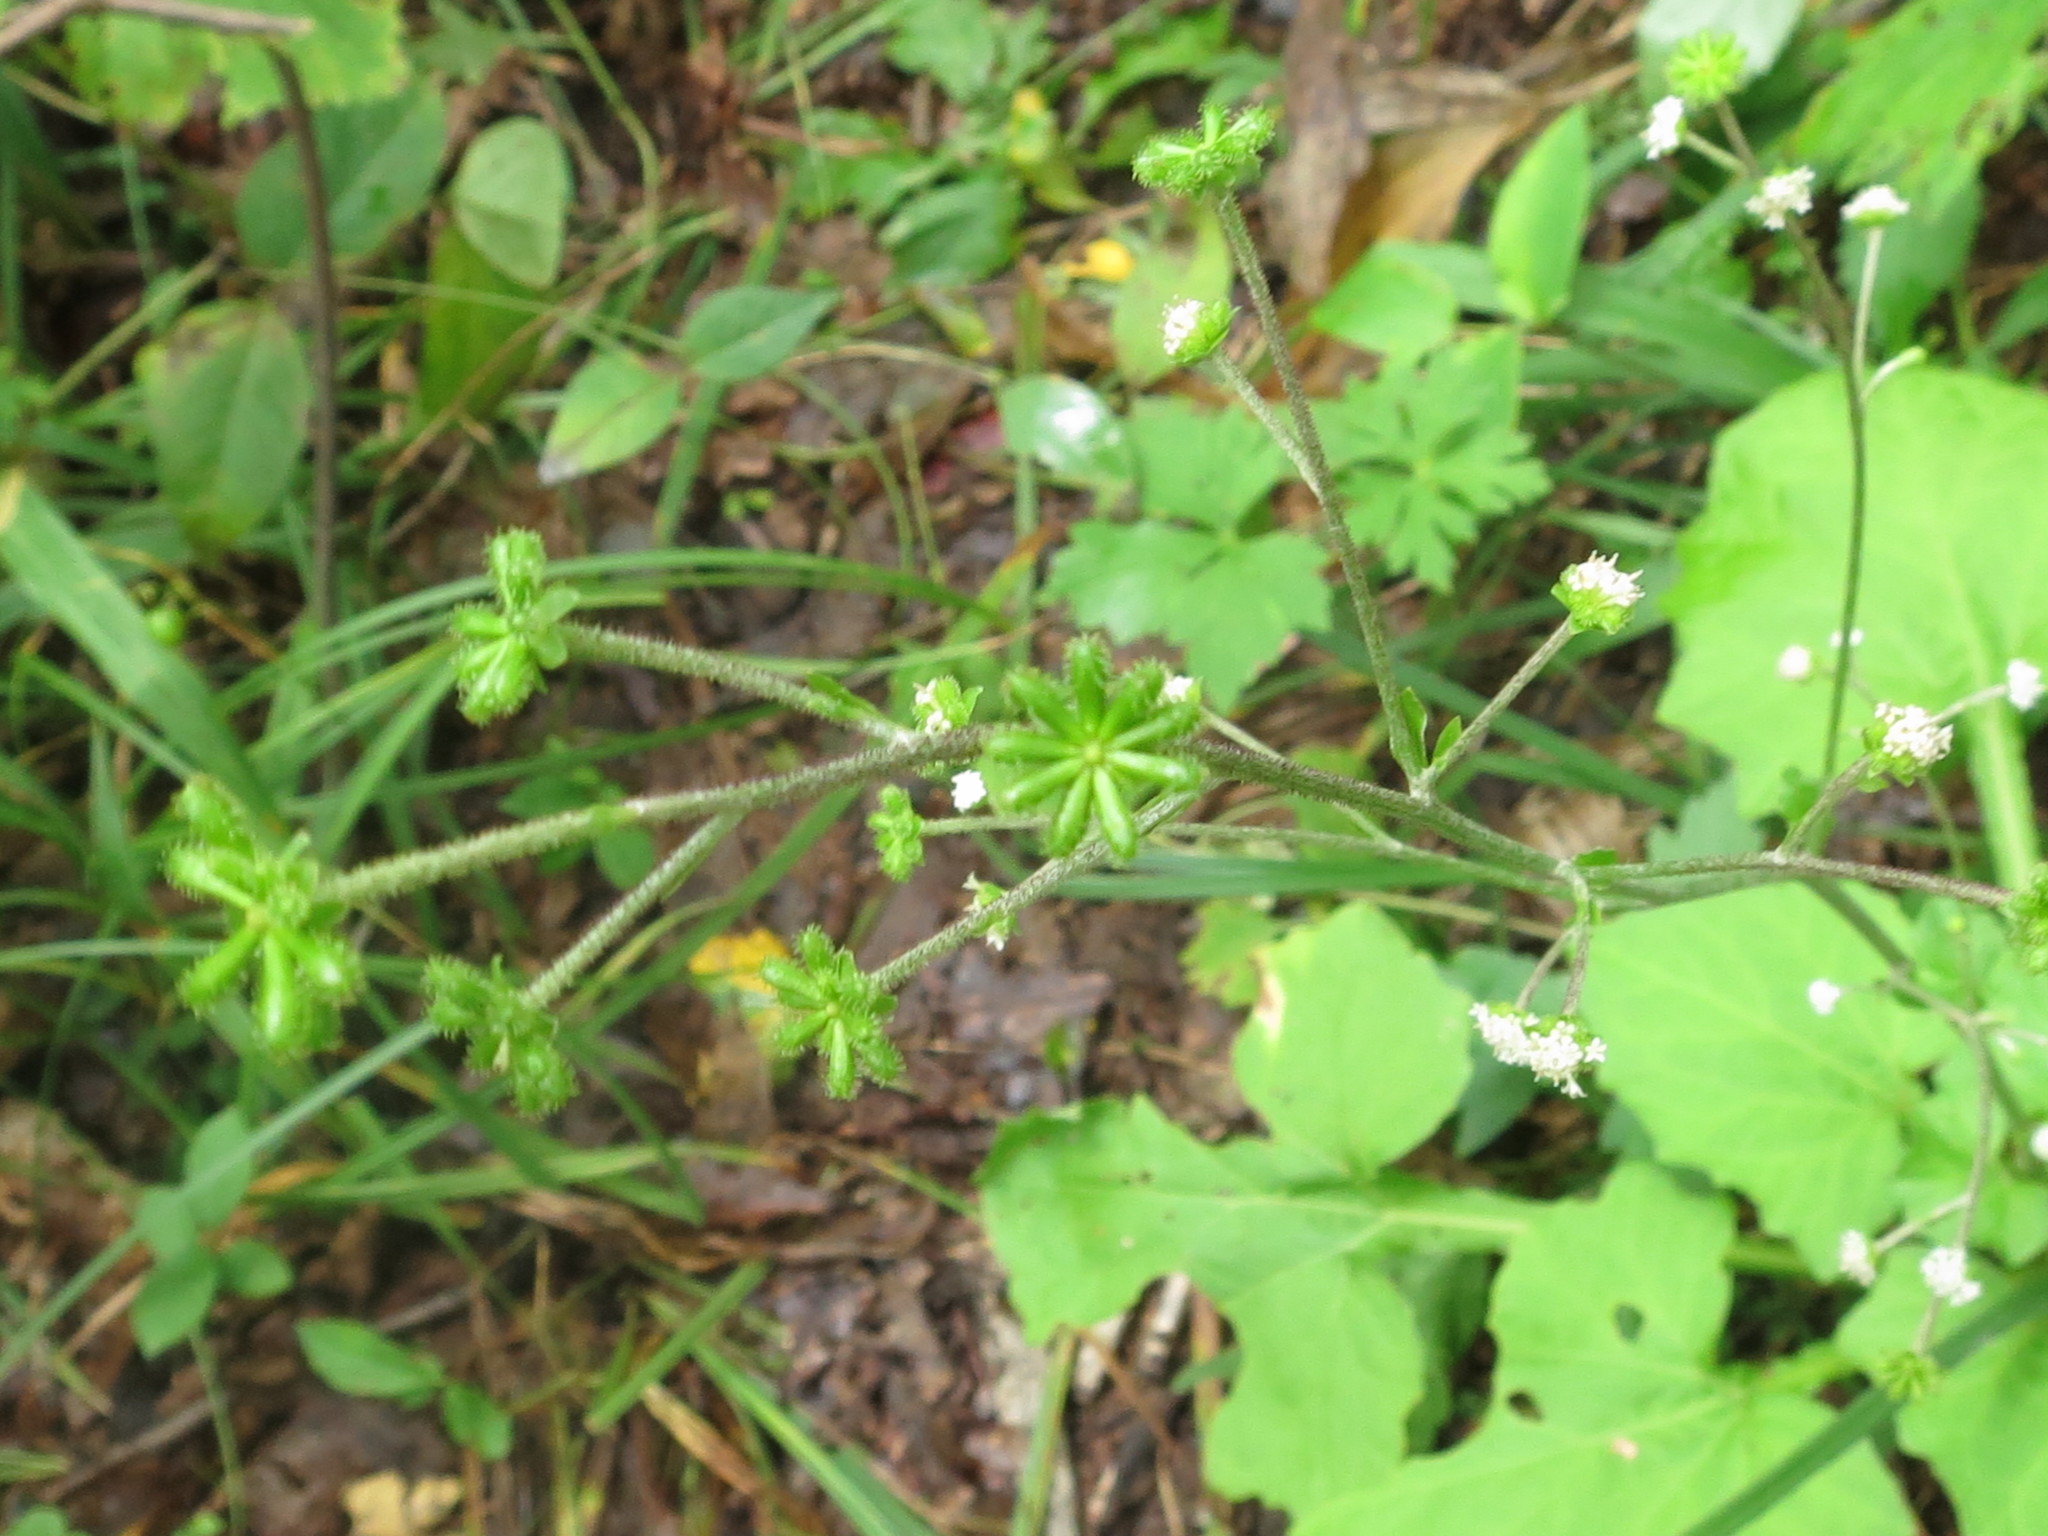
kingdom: Plantae
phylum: Tracheophyta
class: Magnoliopsida
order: Asterales
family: Asteraceae
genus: Adenocaulon
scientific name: Adenocaulon himalaicum
